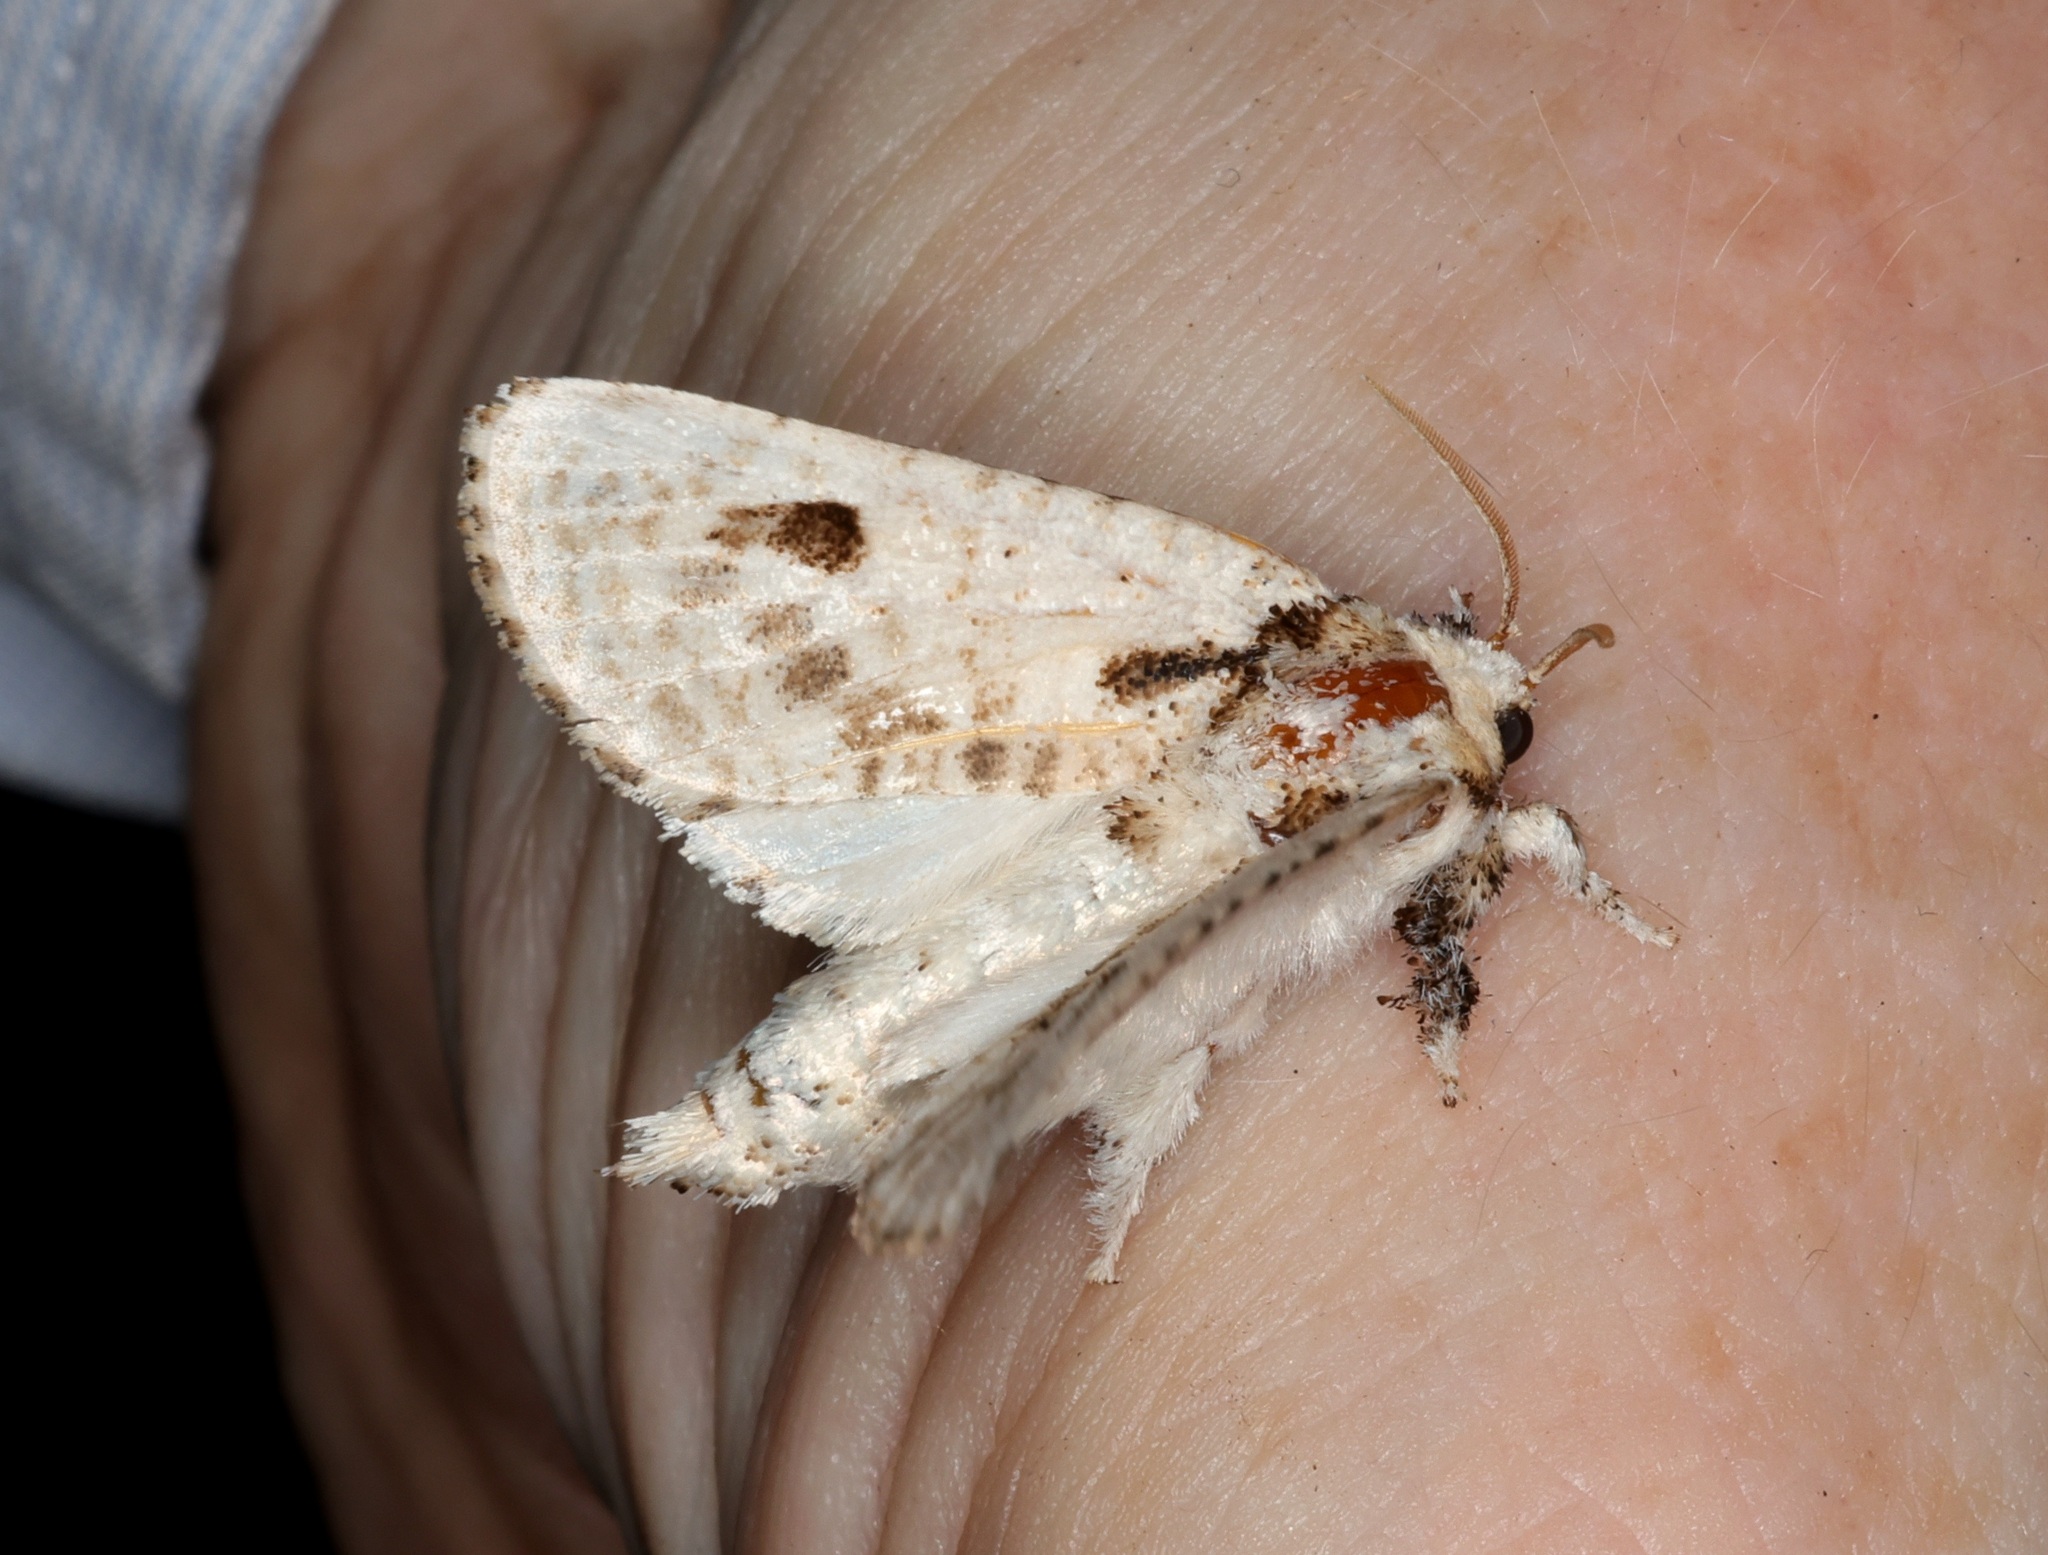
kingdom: Animalia
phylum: Arthropoda
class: Insecta
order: Lepidoptera
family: Metarbelidae
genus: Indarbela
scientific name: Indarbela obliquifasciata
